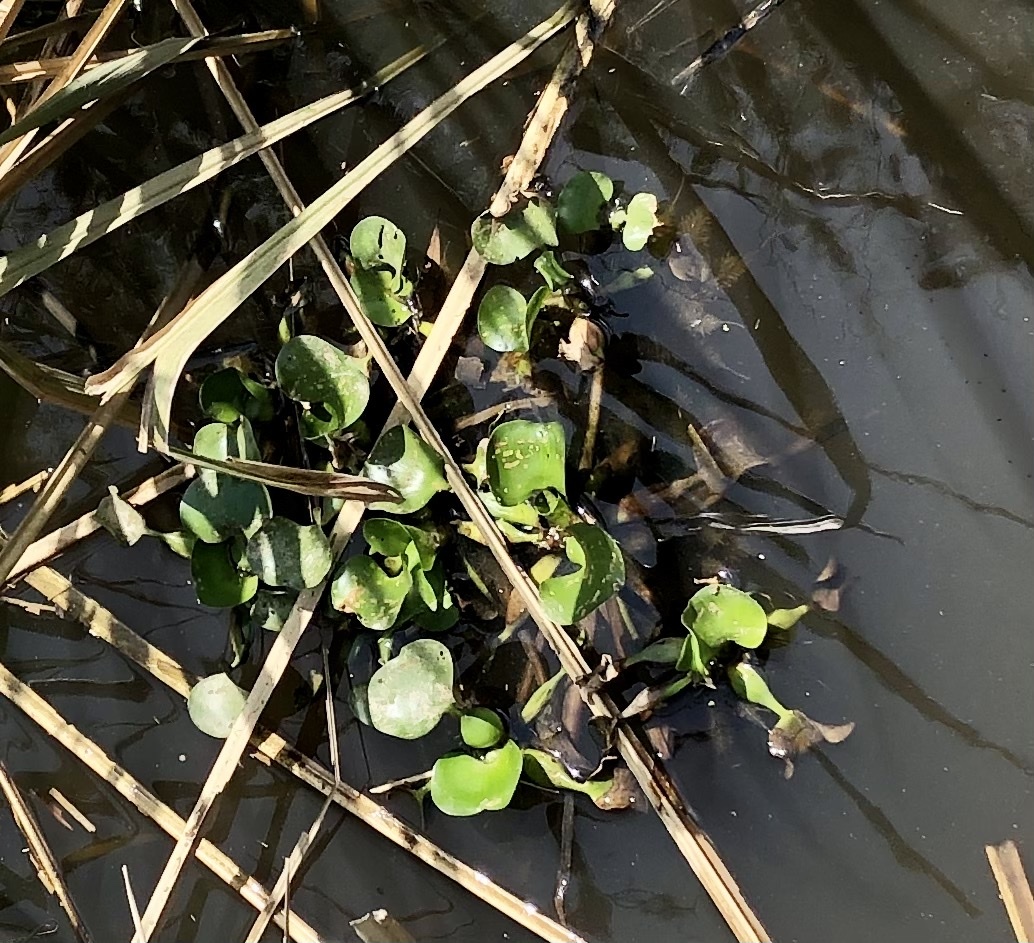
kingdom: Plantae
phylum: Tracheophyta
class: Liliopsida
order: Commelinales
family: Pontederiaceae
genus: Pontederia
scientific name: Pontederia crassipes
